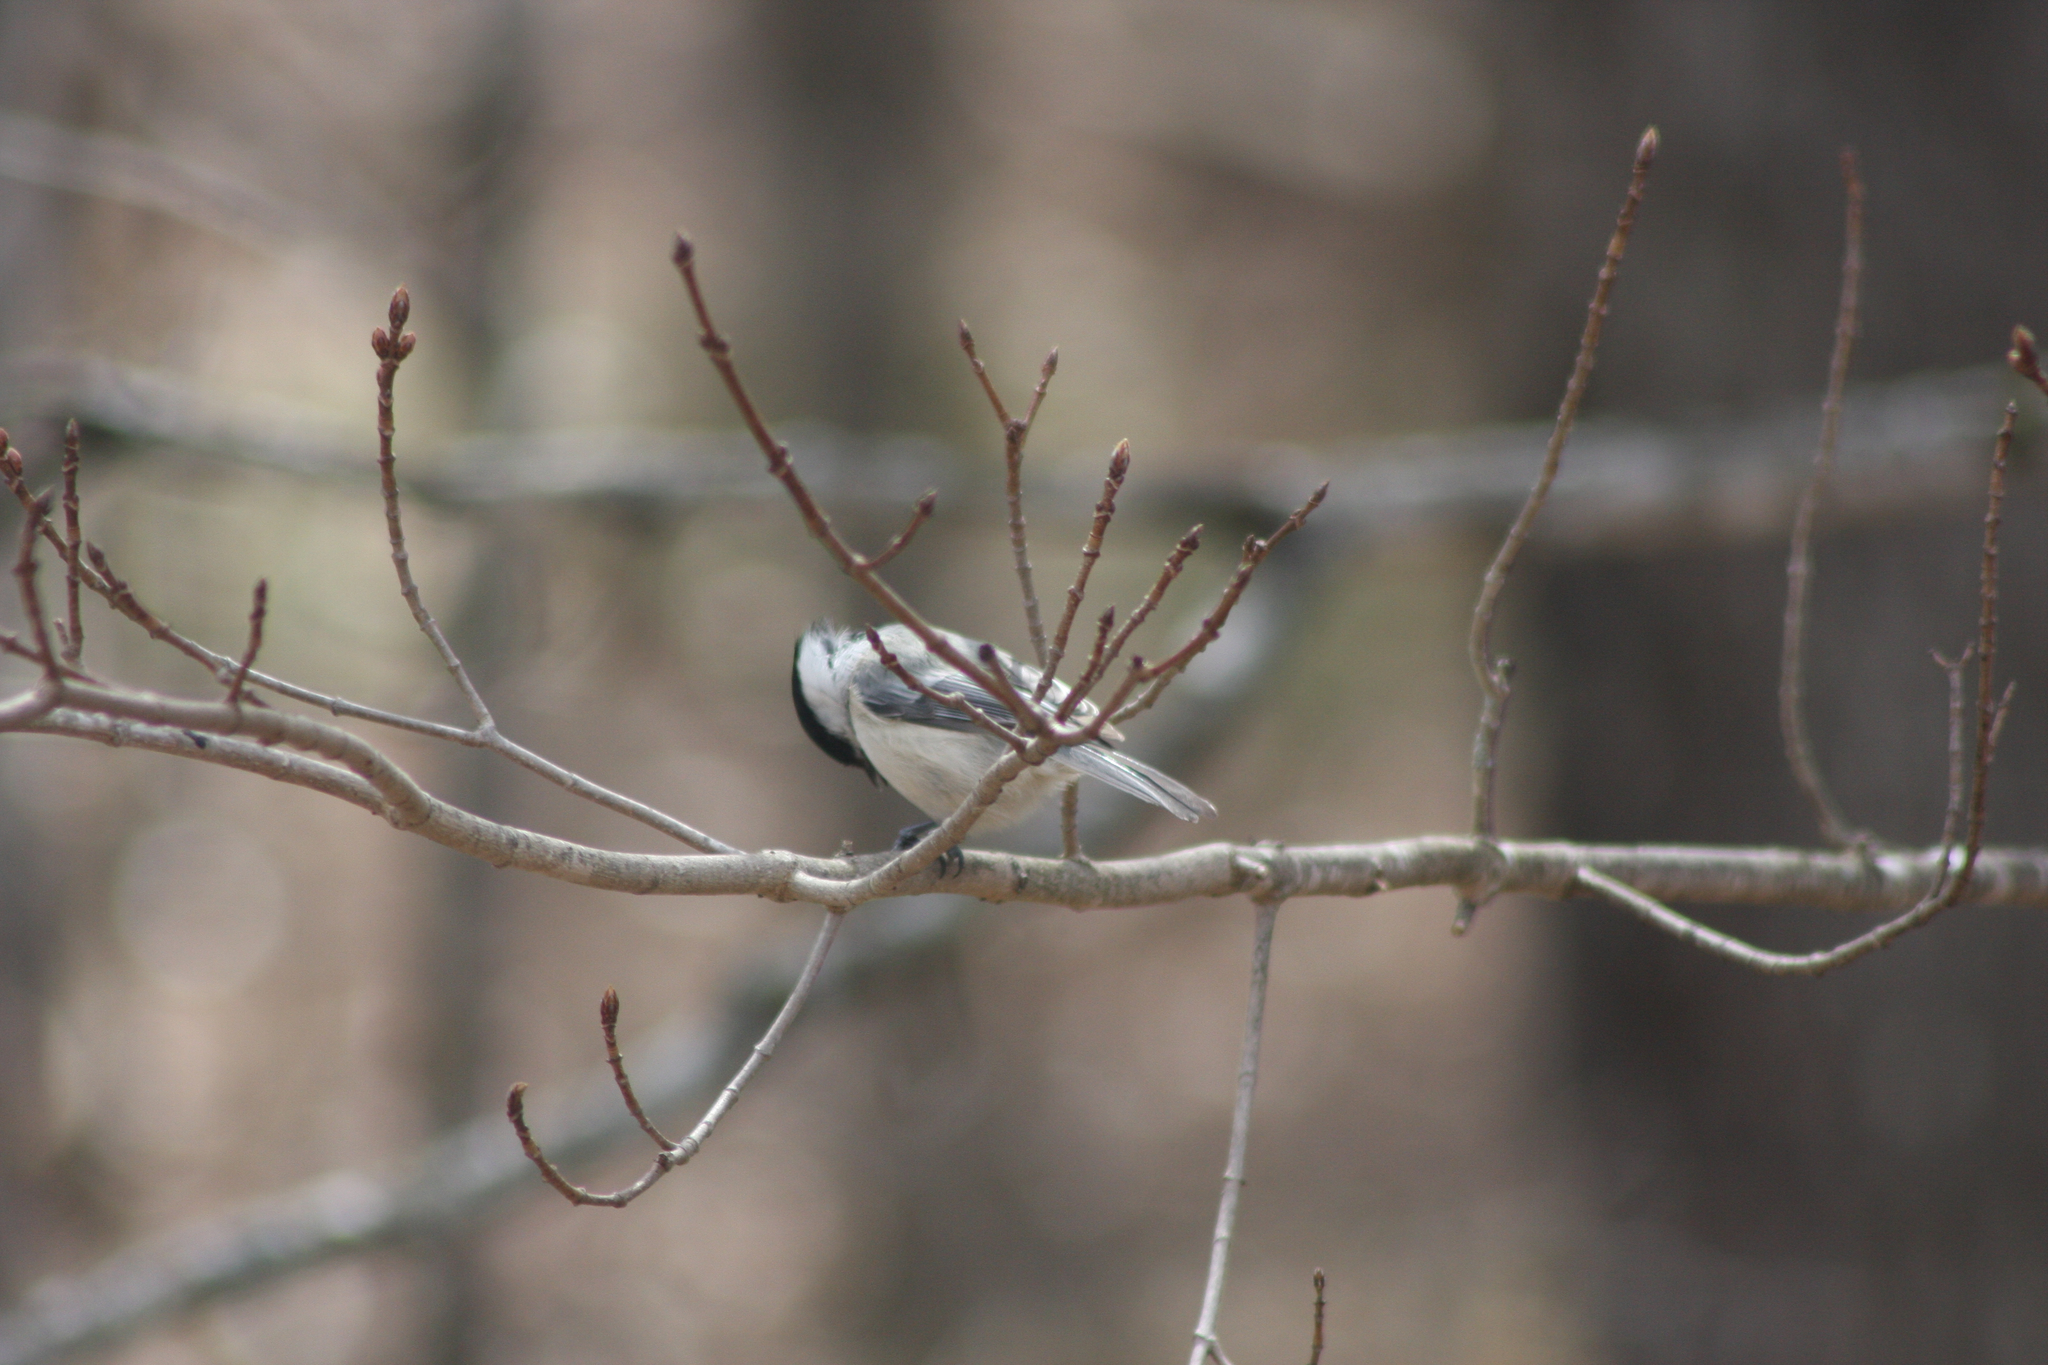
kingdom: Animalia
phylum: Chordata
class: Aves
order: Passeriformes
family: Paridae
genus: Poecile
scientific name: Poecile atricapillus
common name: Black-capped chickadee
